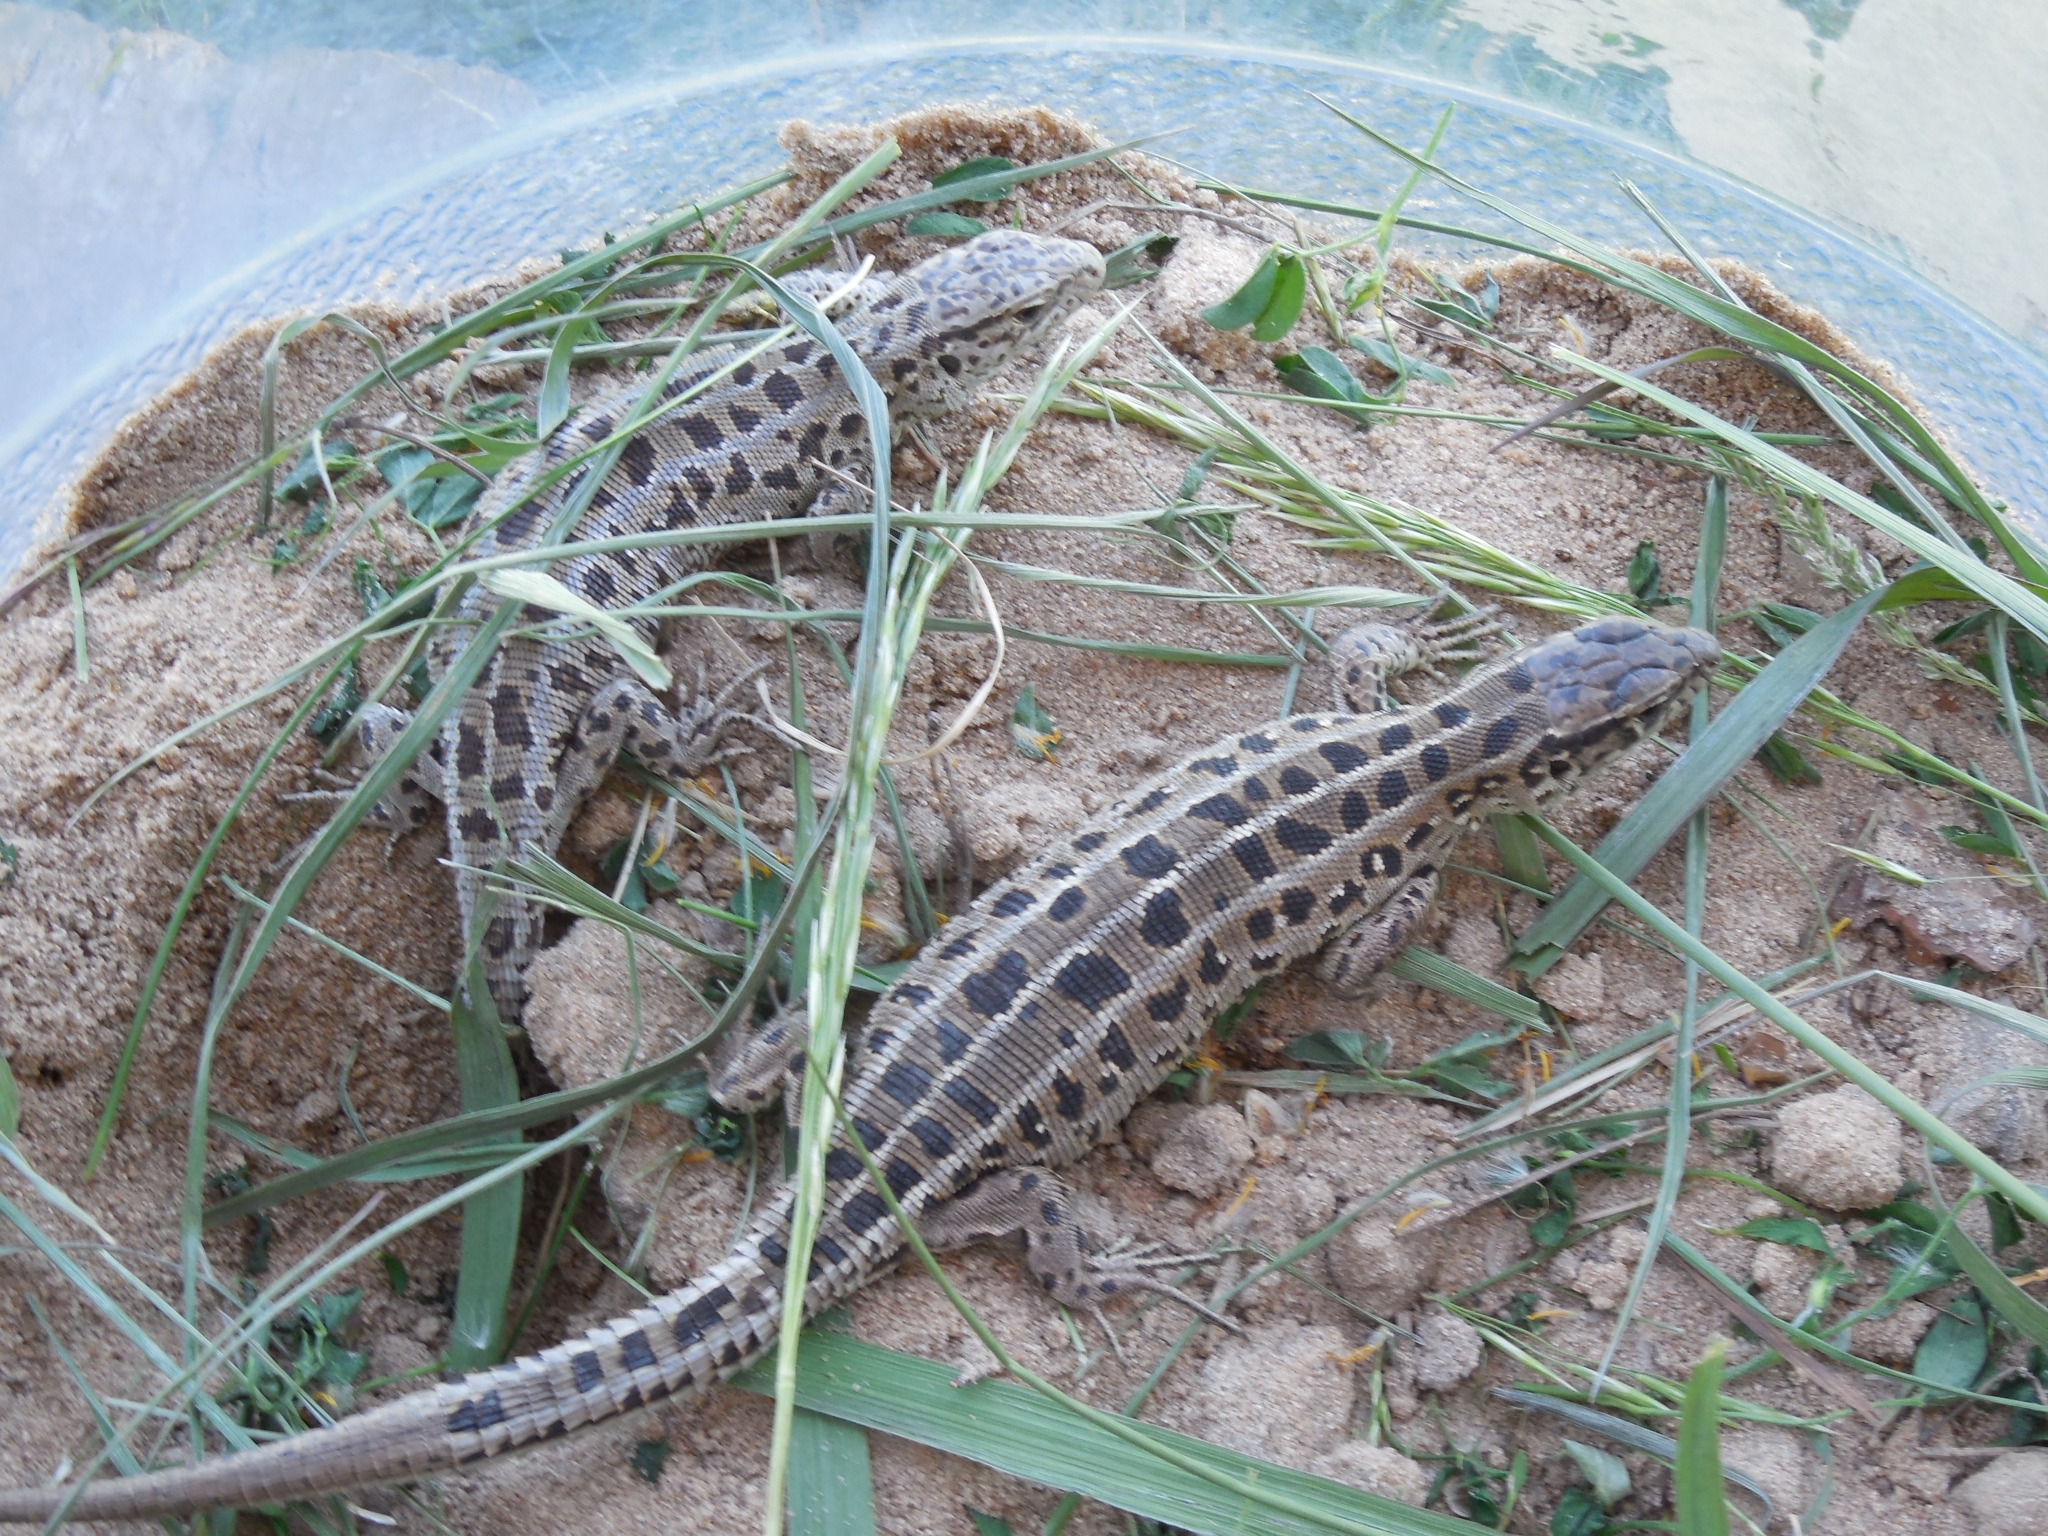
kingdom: Animalia
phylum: Chordata
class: Squamata
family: Lacertidae
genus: Lacerta
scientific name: Lacerta agilis
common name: Sand lizard
